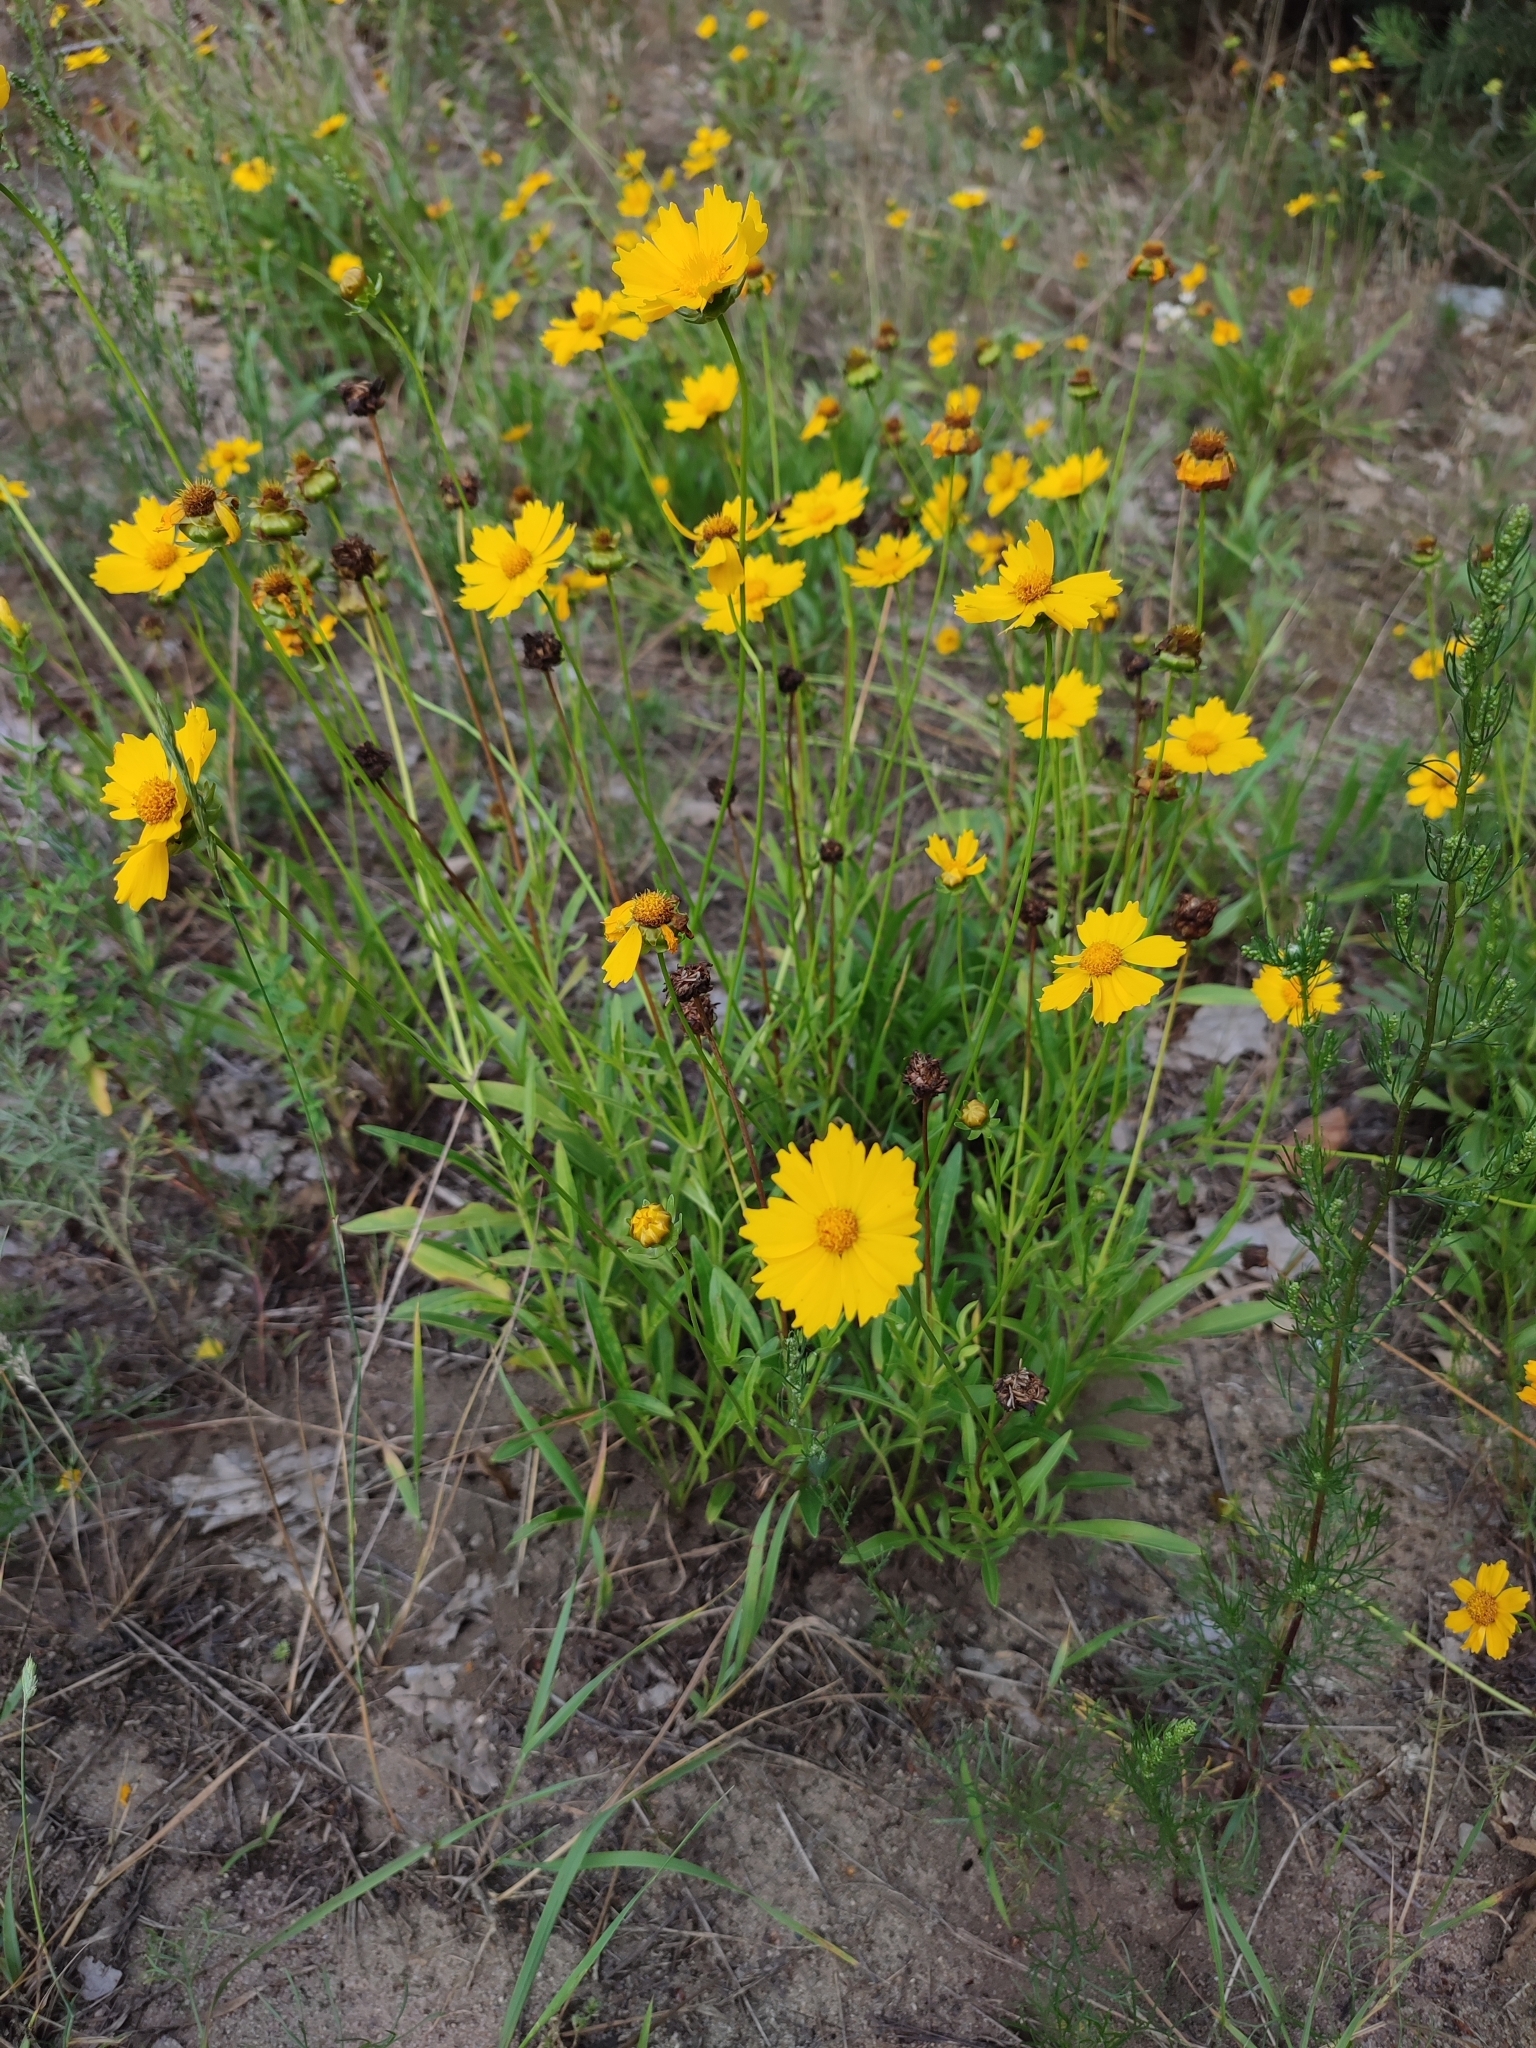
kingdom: Plantae
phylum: Tracheophyta
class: Magnoliopsida
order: Asterales
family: Asteraceae
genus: Coreopsis
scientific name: Coreopsis lanceolata
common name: Garden coreopsis
